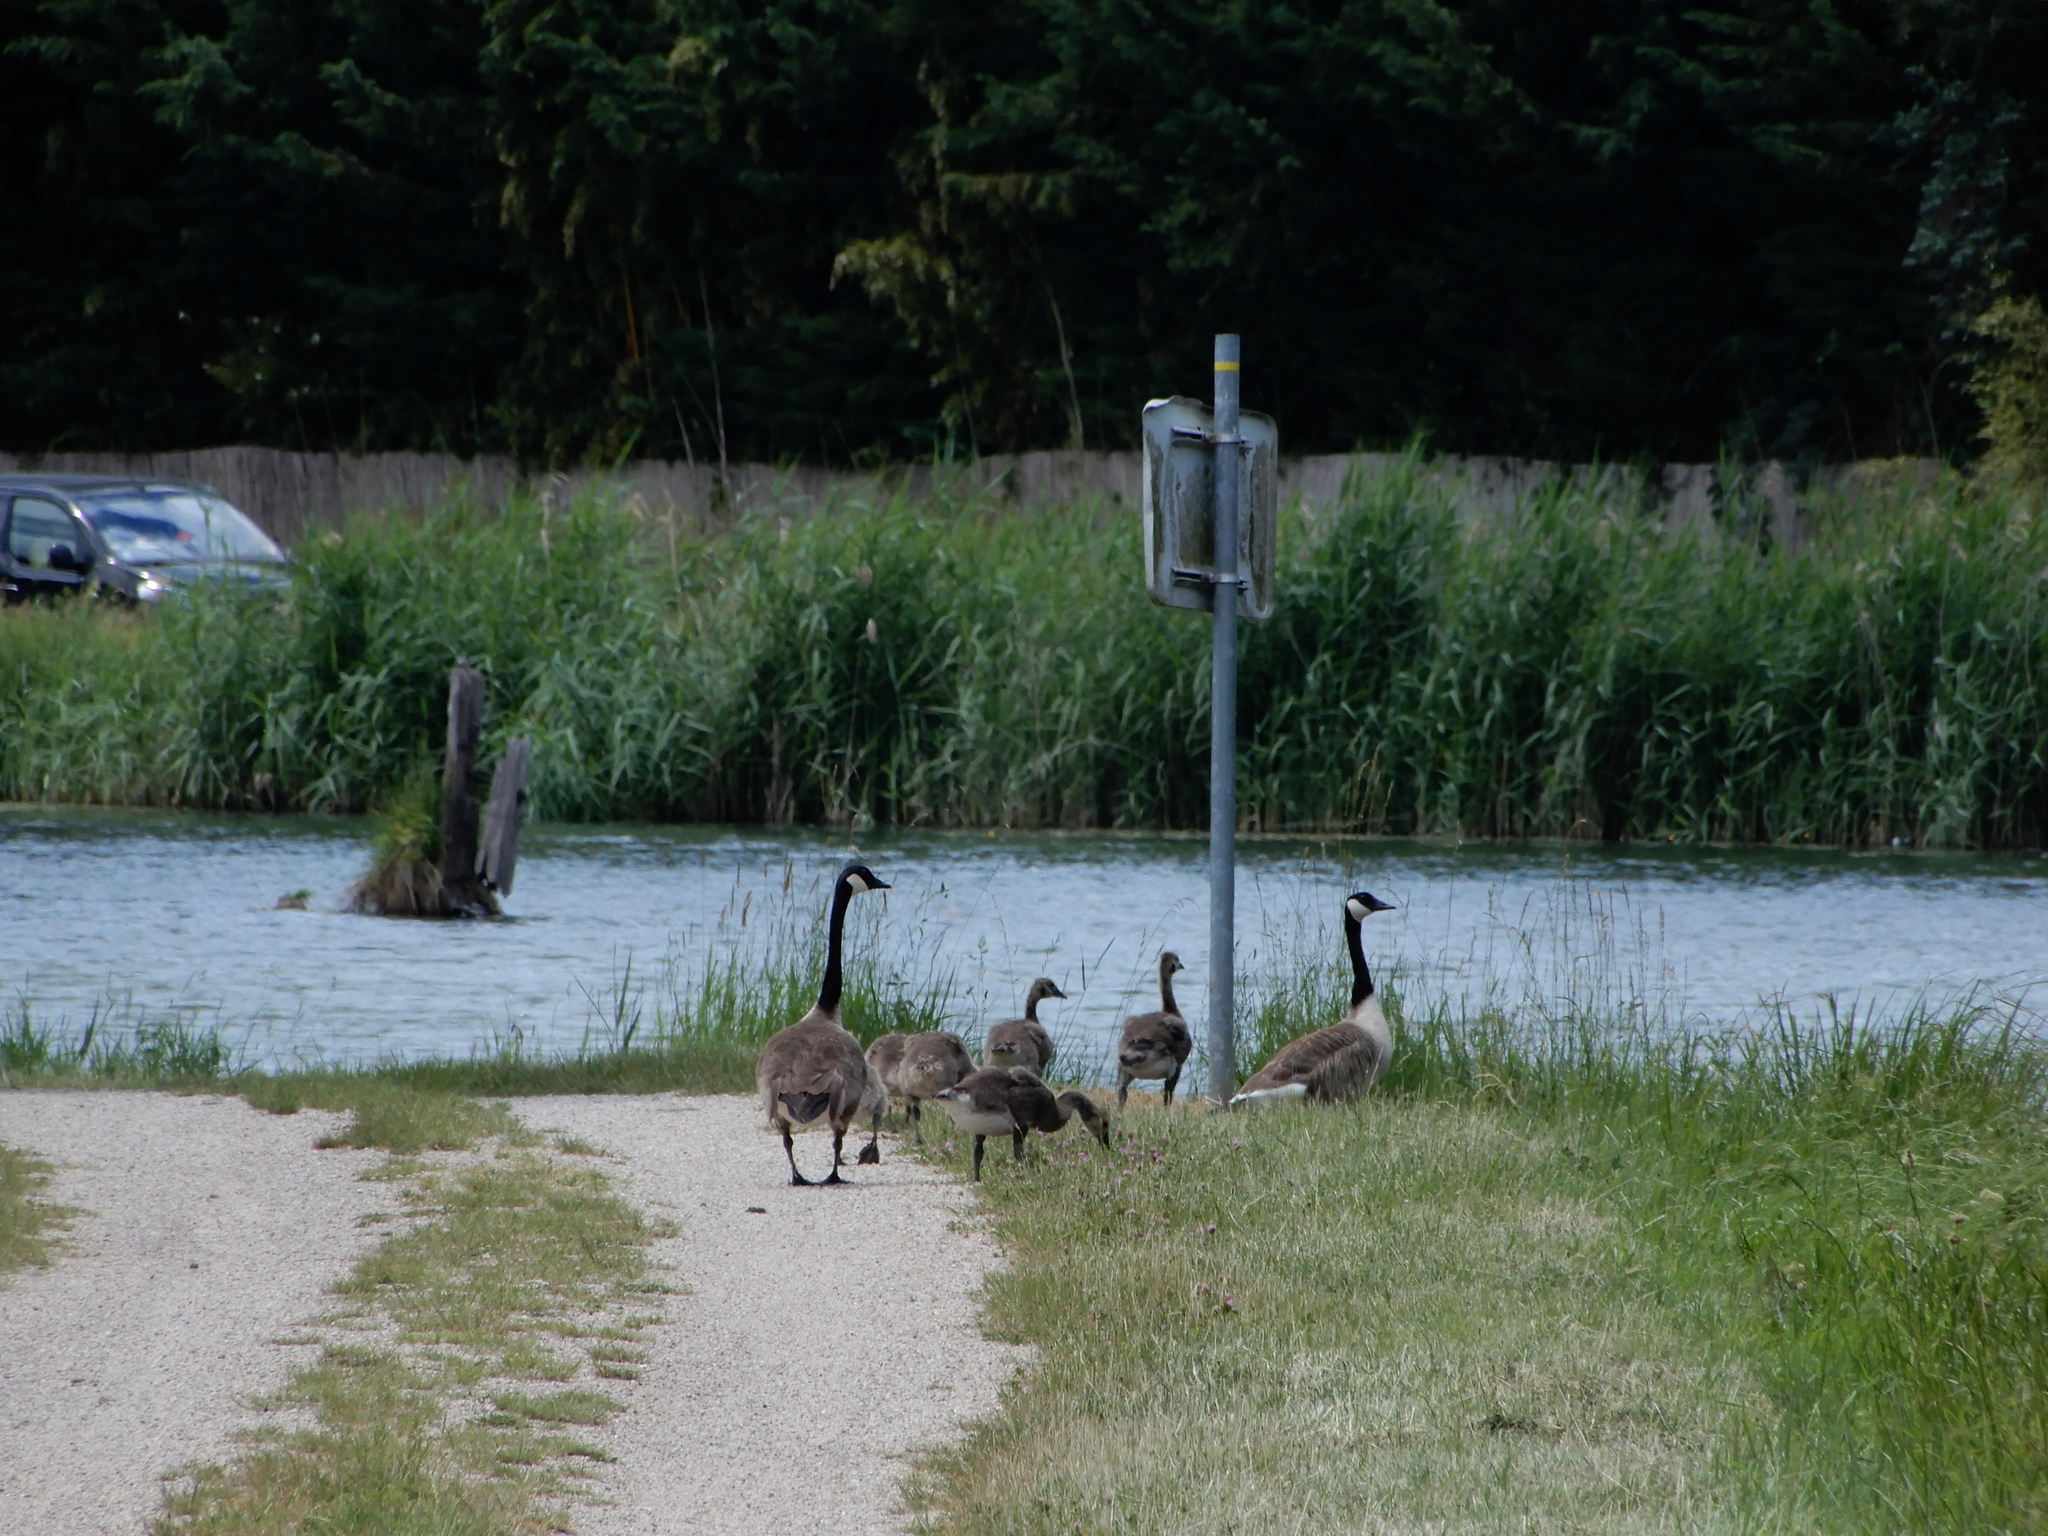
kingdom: Animalia
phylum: Chordata
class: Aves
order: Anseriformes
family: Anatidae
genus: Branta
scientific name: Branta canadensis
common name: Canada goose
